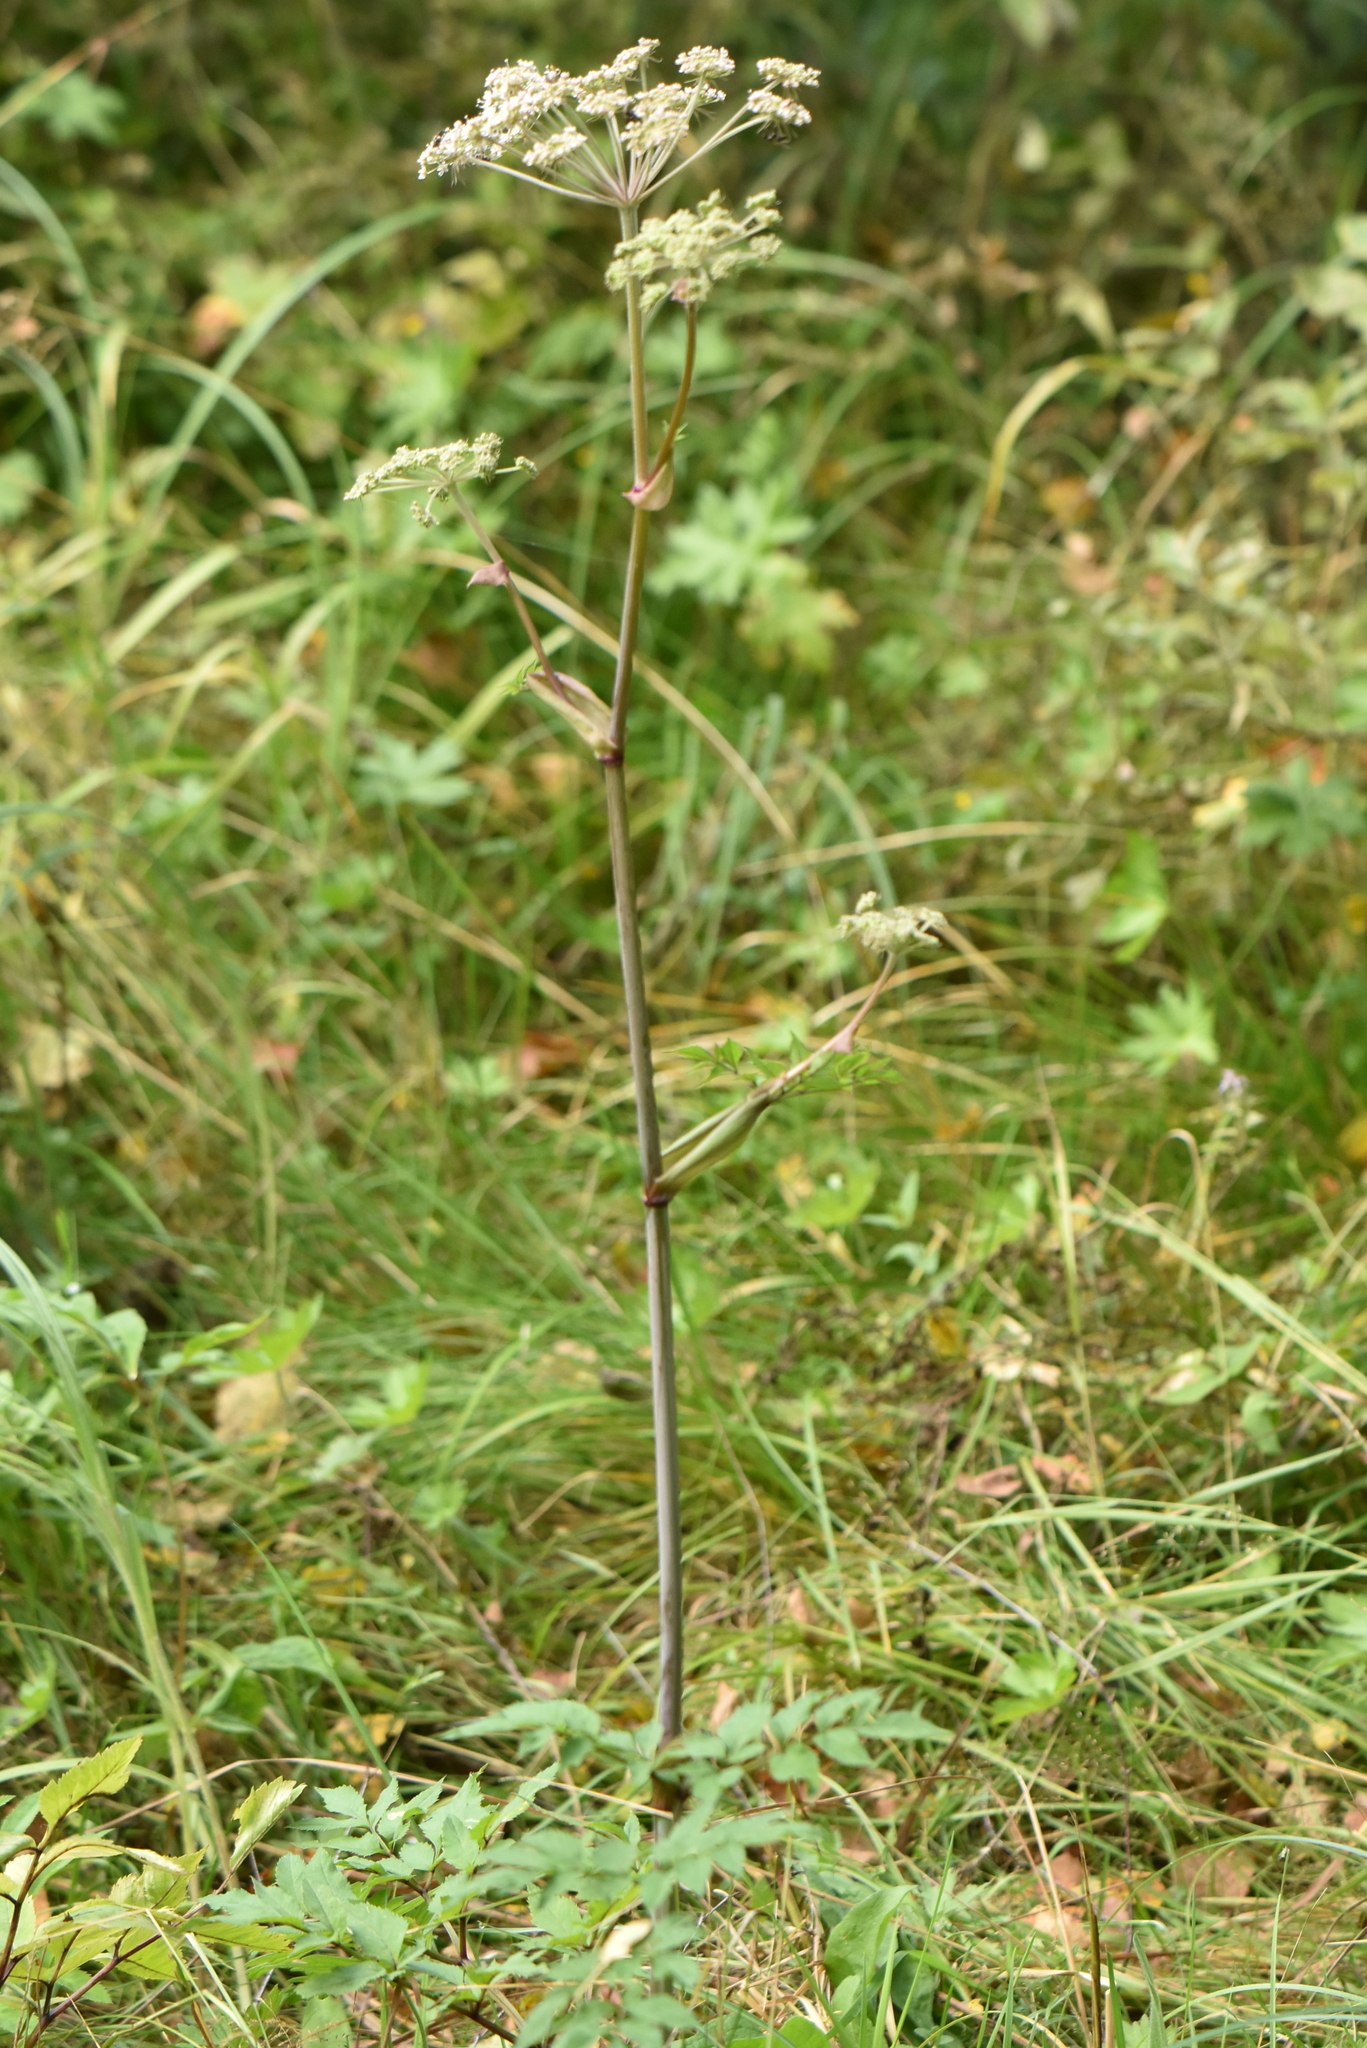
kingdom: Plantae
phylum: Tracheophyta
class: Magnoliopsida
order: Apiales
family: Apiaceae
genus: Angelica
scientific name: Angelica sylvestris
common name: Wild angelica
